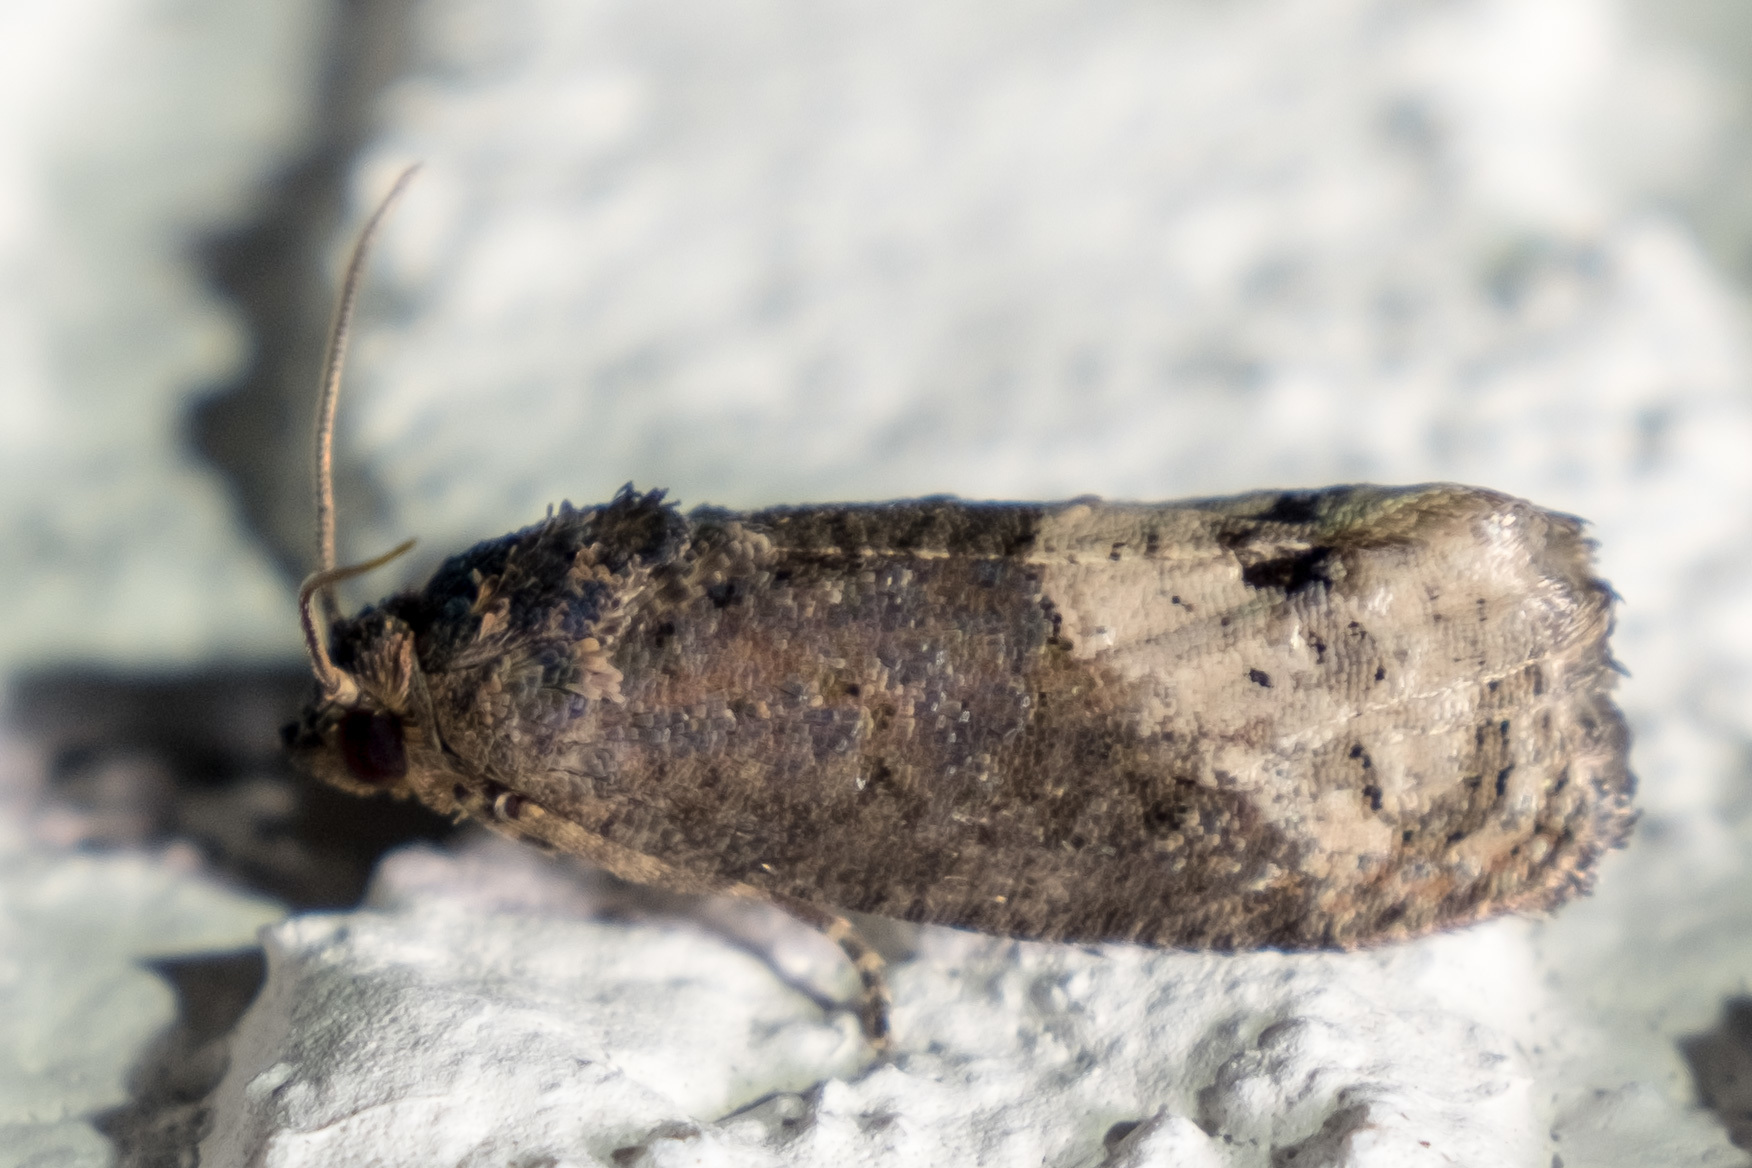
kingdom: Animalia
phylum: Arthropoda
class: Insecta
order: Lepidoptera
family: Tortricidae
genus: Ecdytolopha
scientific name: Ecdytolopha insiticiana
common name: Locust twig borer moth
